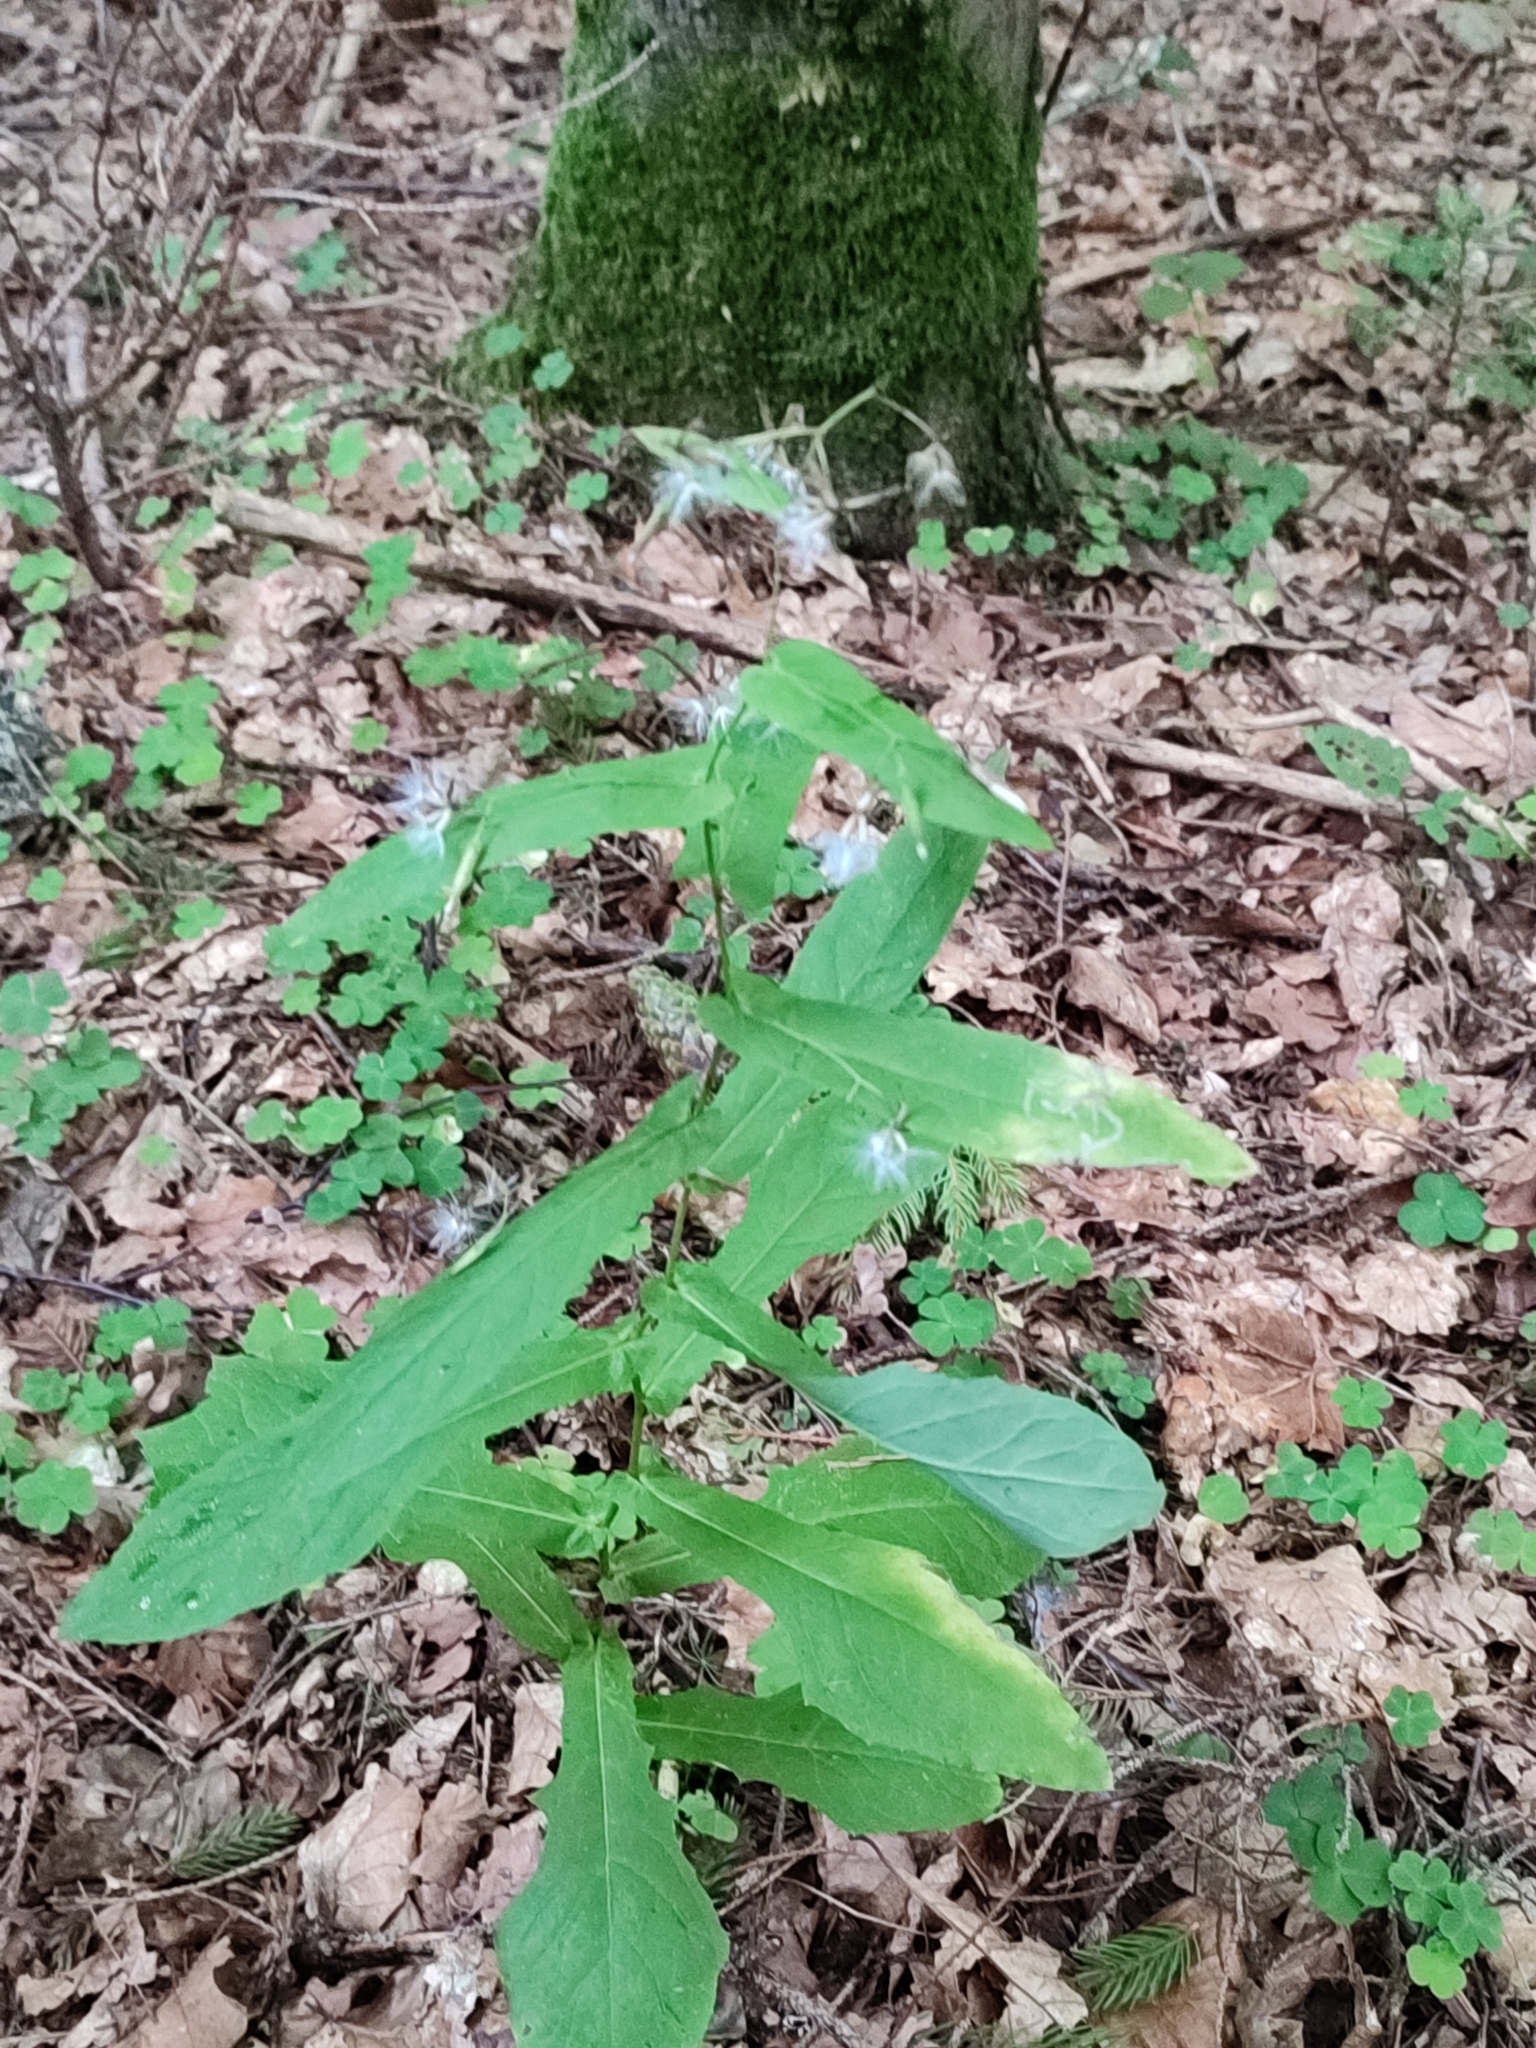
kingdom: Plantae
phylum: Tracheophyta
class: Magnoliopsida
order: Asterales
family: Asteraceae
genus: Prenanthes
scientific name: Prenanthes purpurea
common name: Purple lettuce
